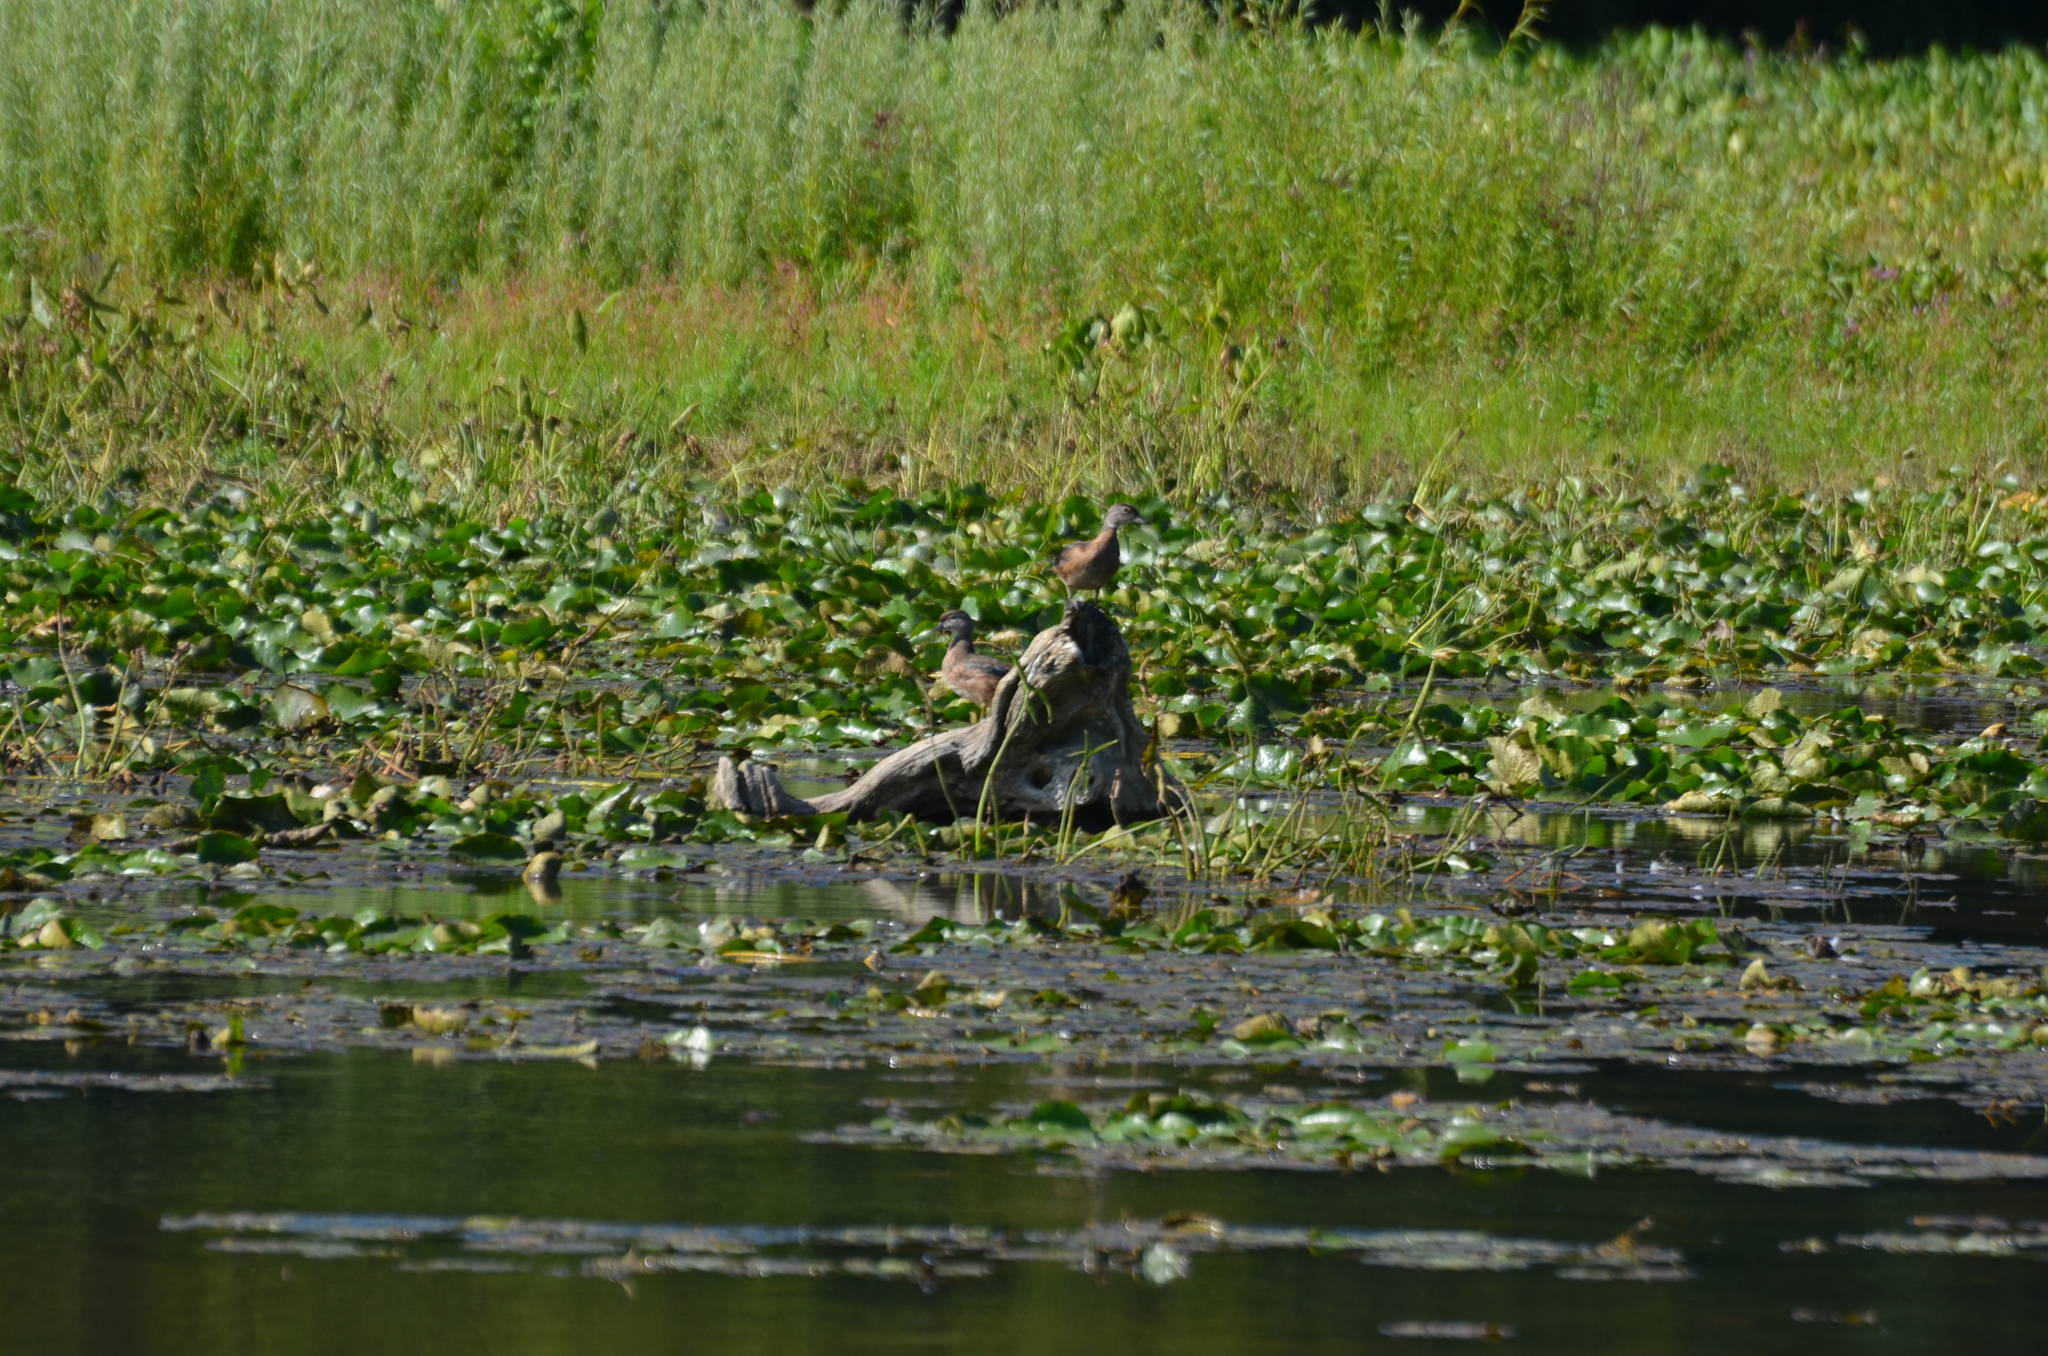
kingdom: Animalia
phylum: Chordata
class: Aves
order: Anseriformes
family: Anatidae
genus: Aix
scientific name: Aix sponsa
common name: Wood duck
